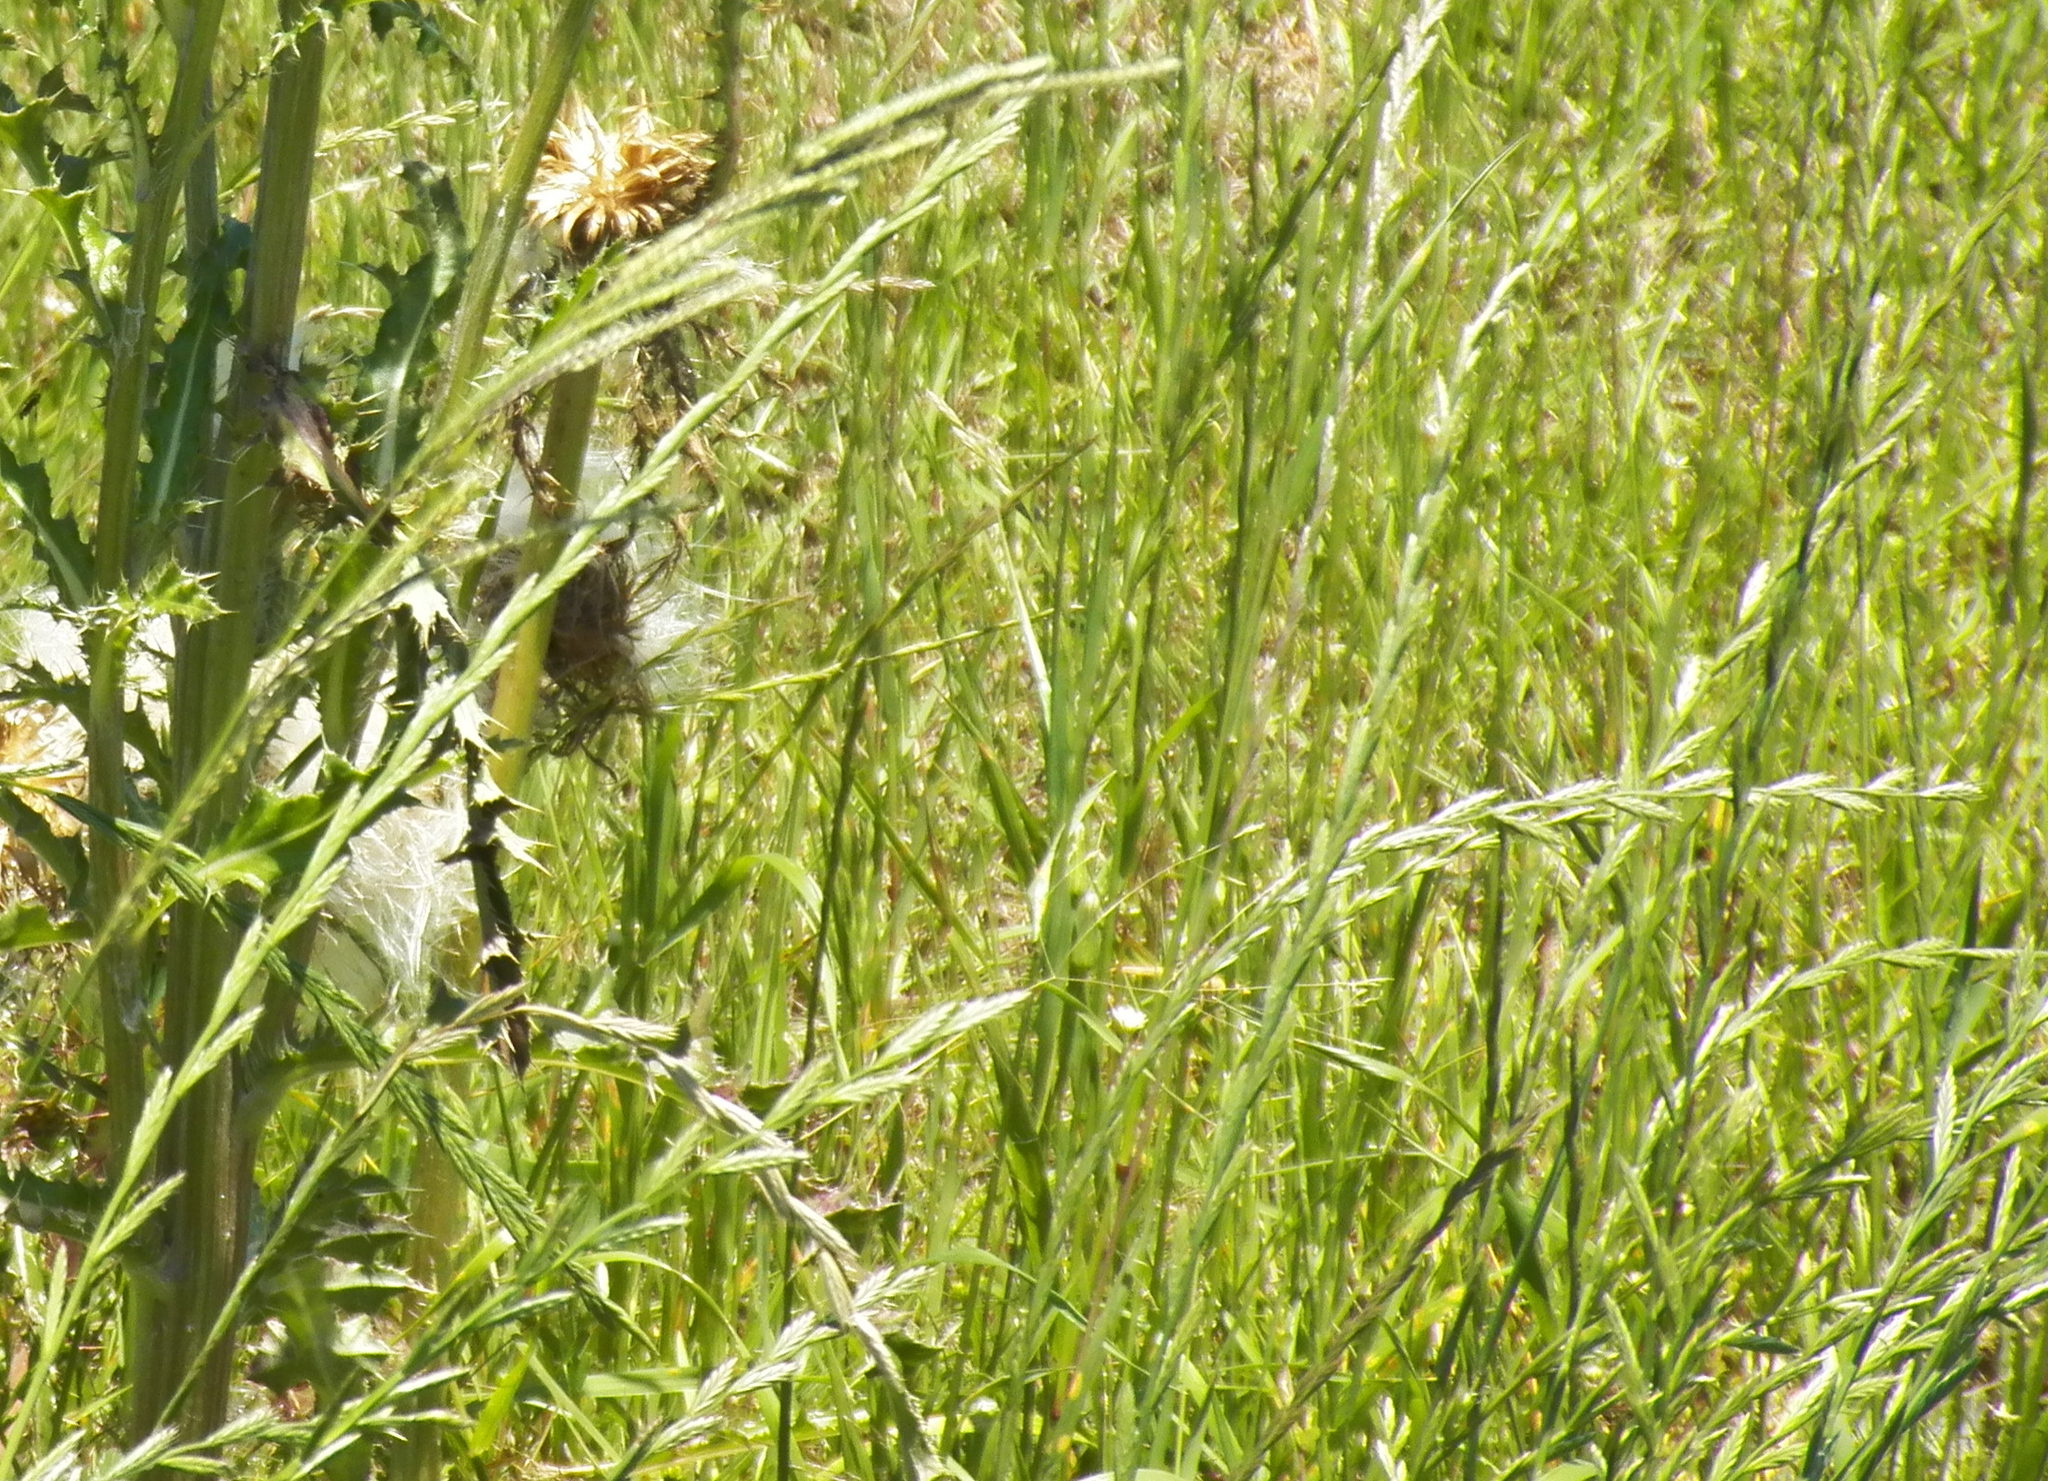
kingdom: Plantae
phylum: Tracheophyta
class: Liliopsida
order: Poales
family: Poaceae
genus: Lolium
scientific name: Lolium perenne
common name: Perennial ryegrass
